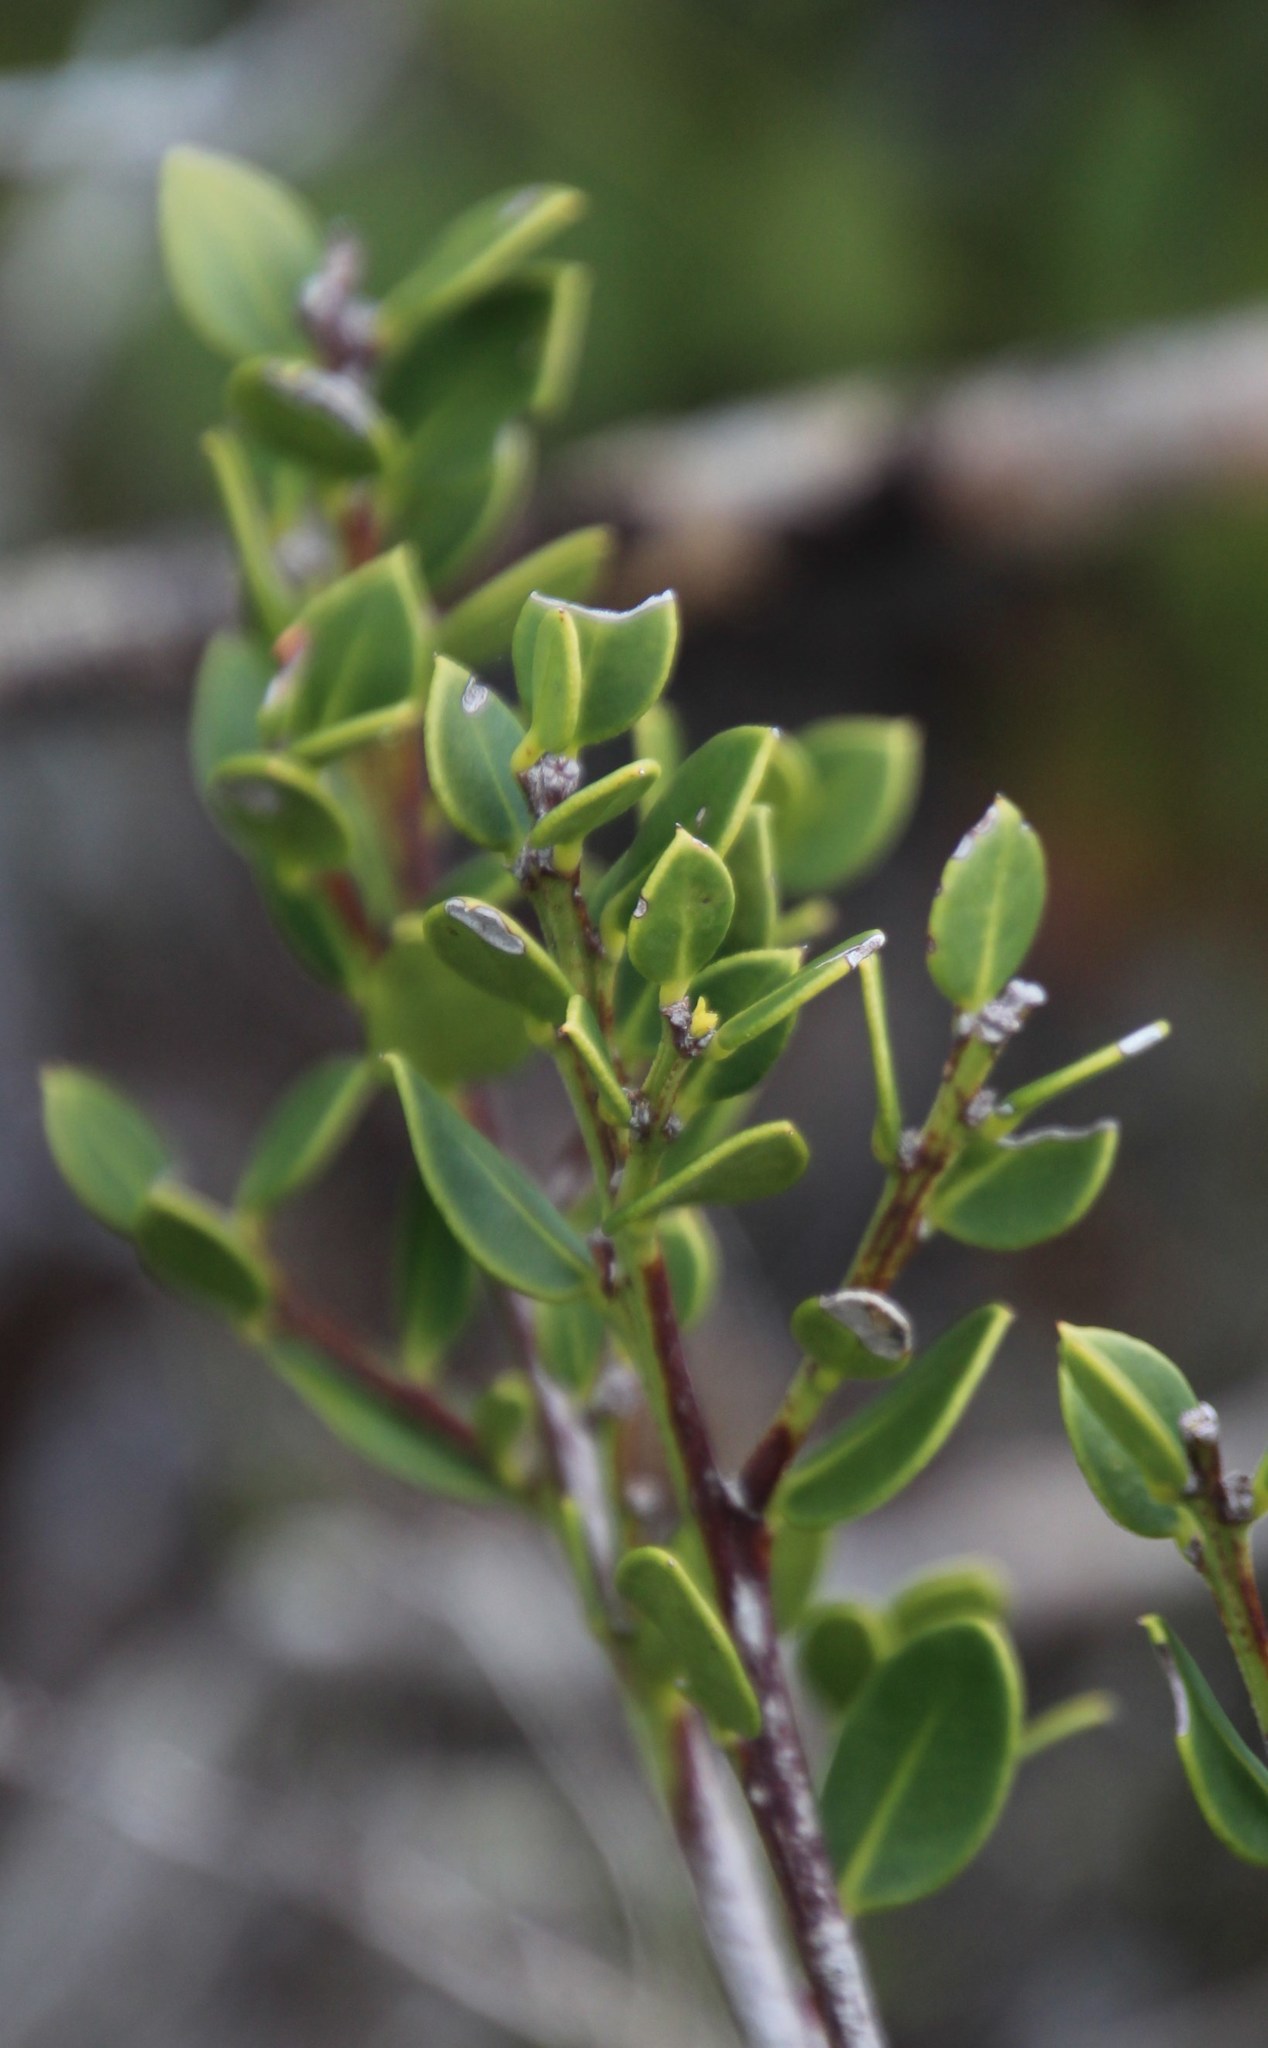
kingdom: Plantae
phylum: Tracheophyta
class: Magnoliopsida
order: Celastrales
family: Celastraceae
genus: Gymnosporia
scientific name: Gymnosporia lucida
